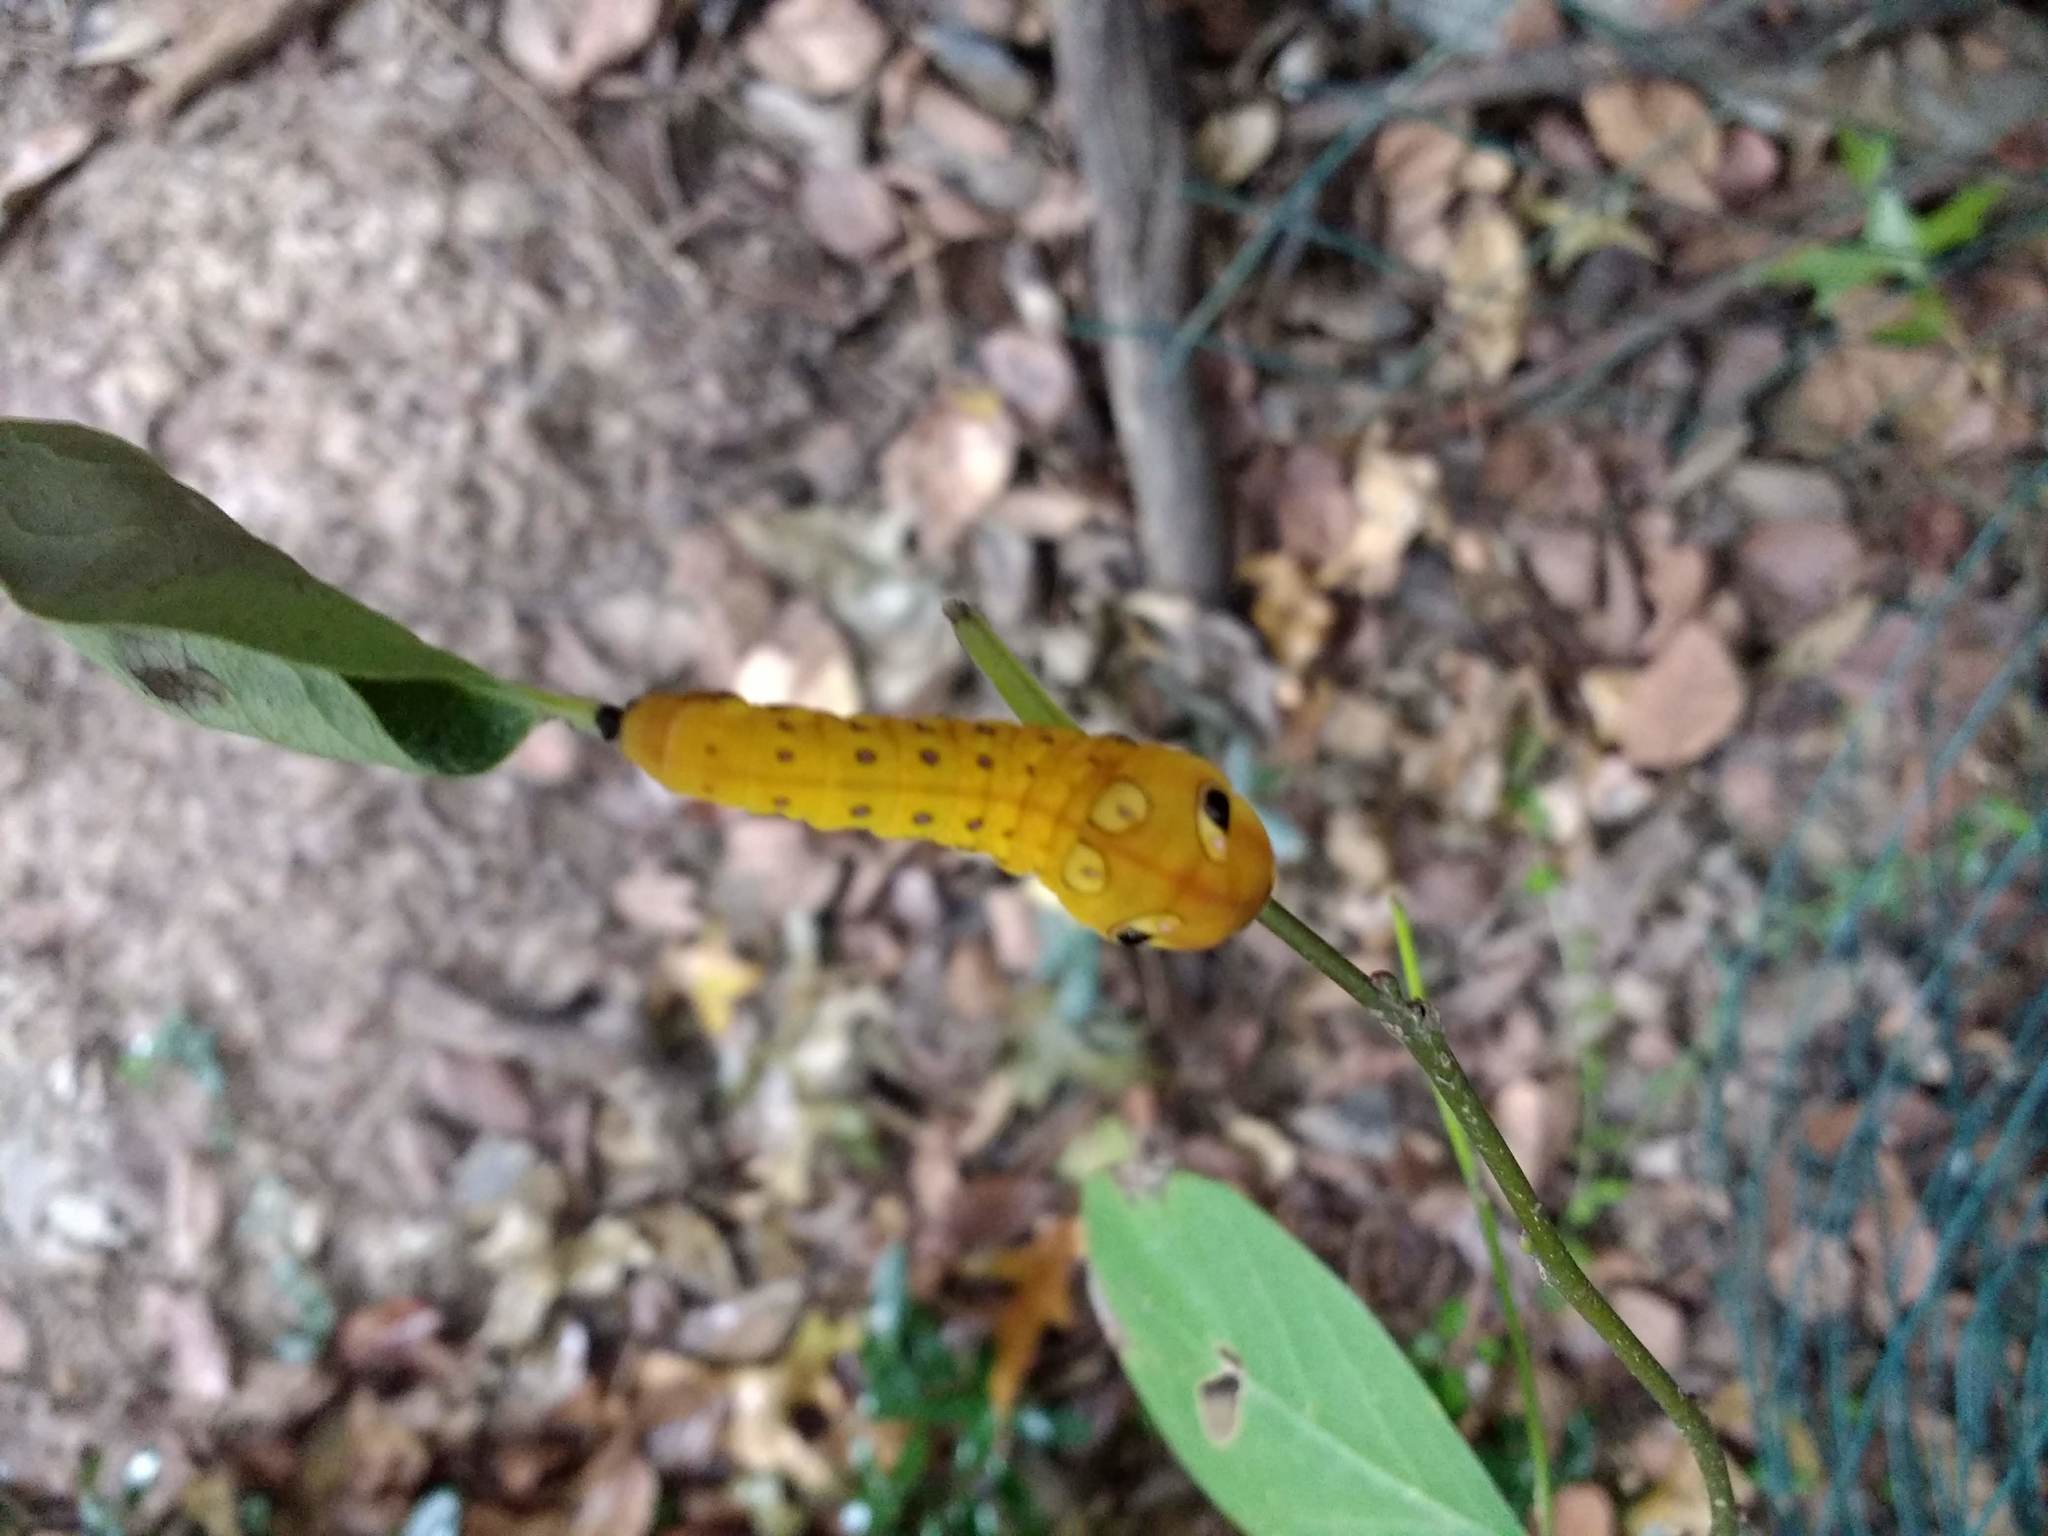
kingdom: Animalia
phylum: Arthropoda
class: Insecta
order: Lepidoptera
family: Papilionidae
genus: Papilio
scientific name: Papilio troilus
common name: Spicebush swallowtail
